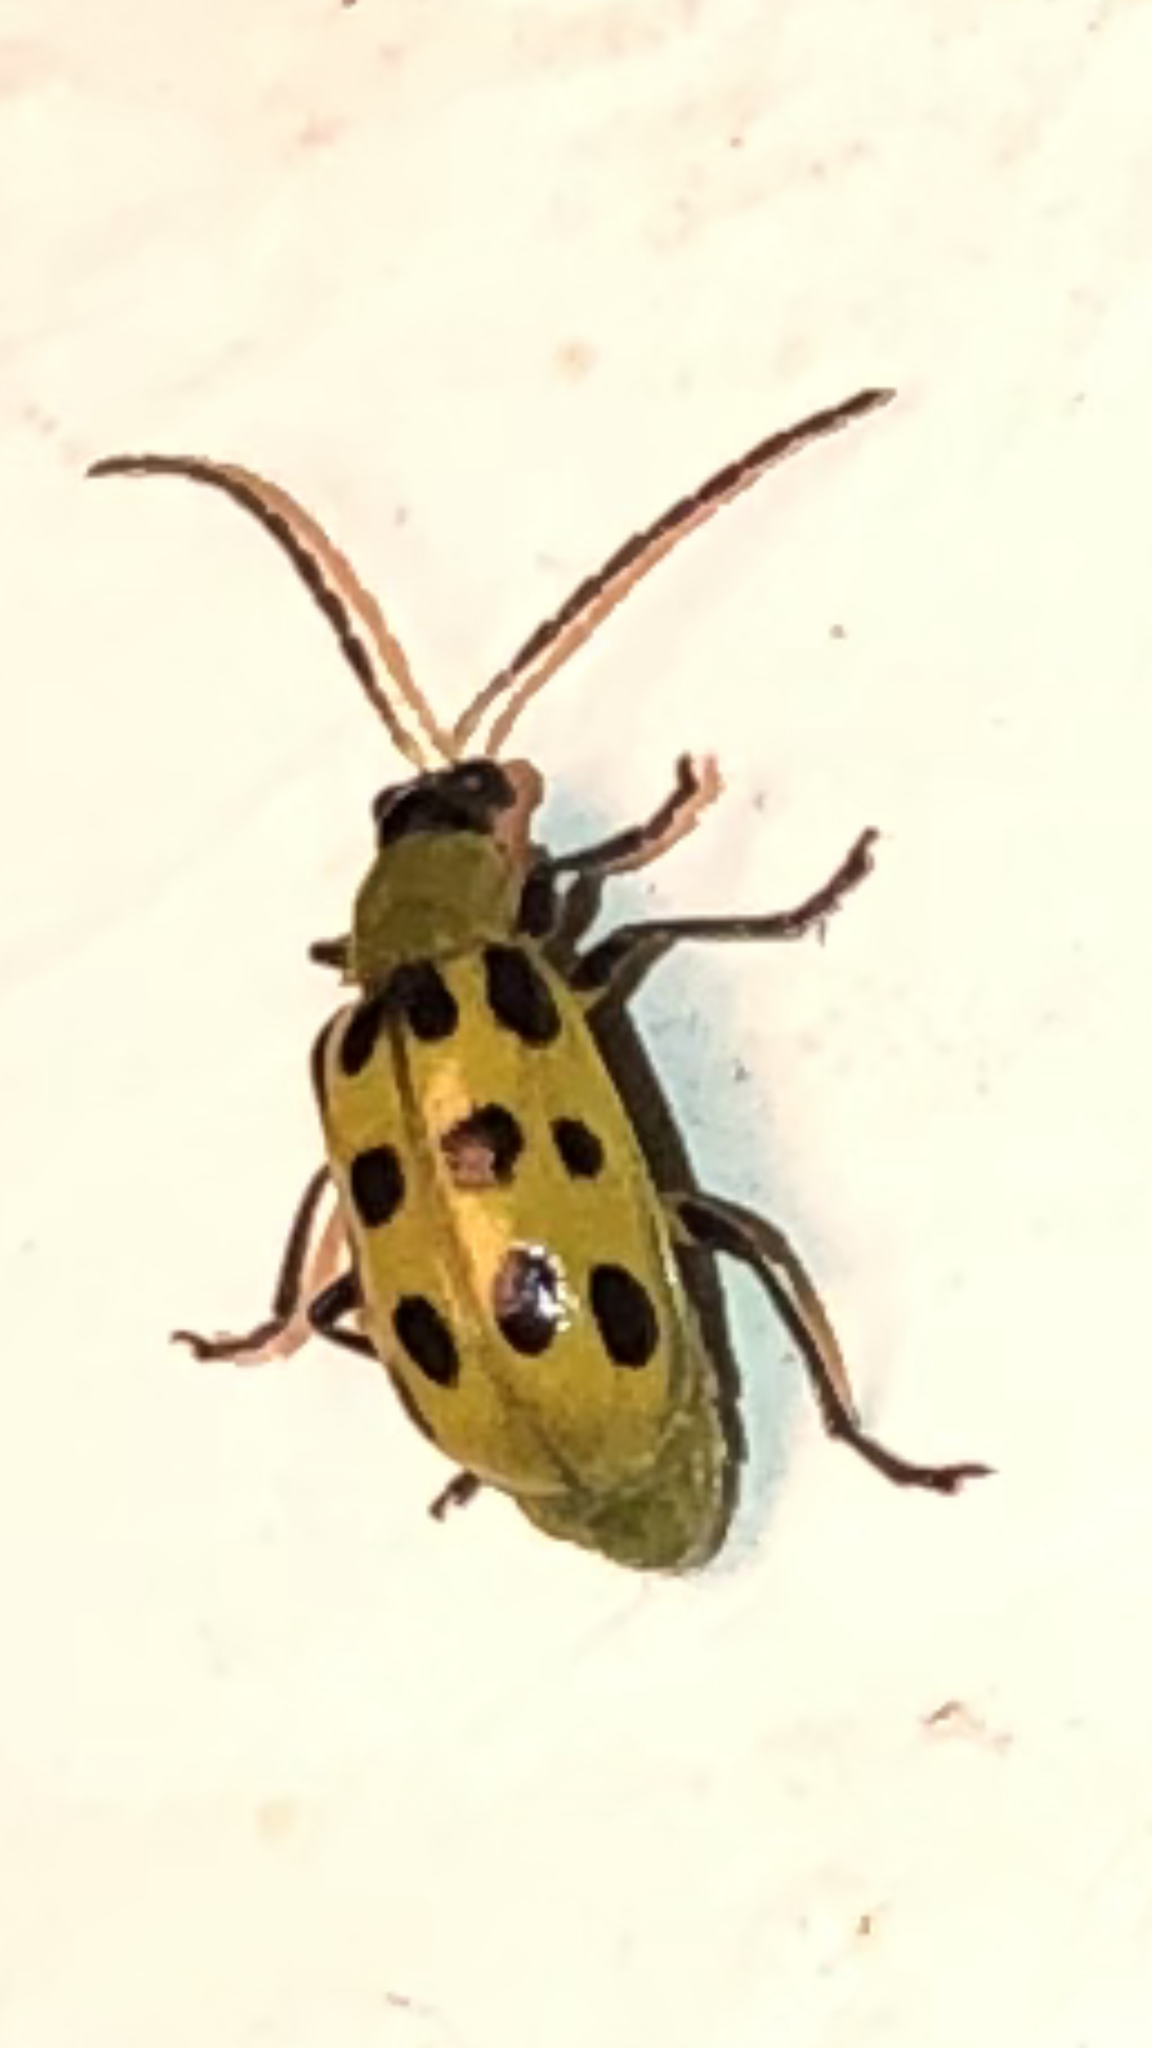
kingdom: Animalia
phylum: Arthropoda
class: Insecta
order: Coleoptera
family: Chrysomelidae
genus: Diabrotica
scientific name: Diabrotica undecimpunctata
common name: Spotted cucumber beetle
